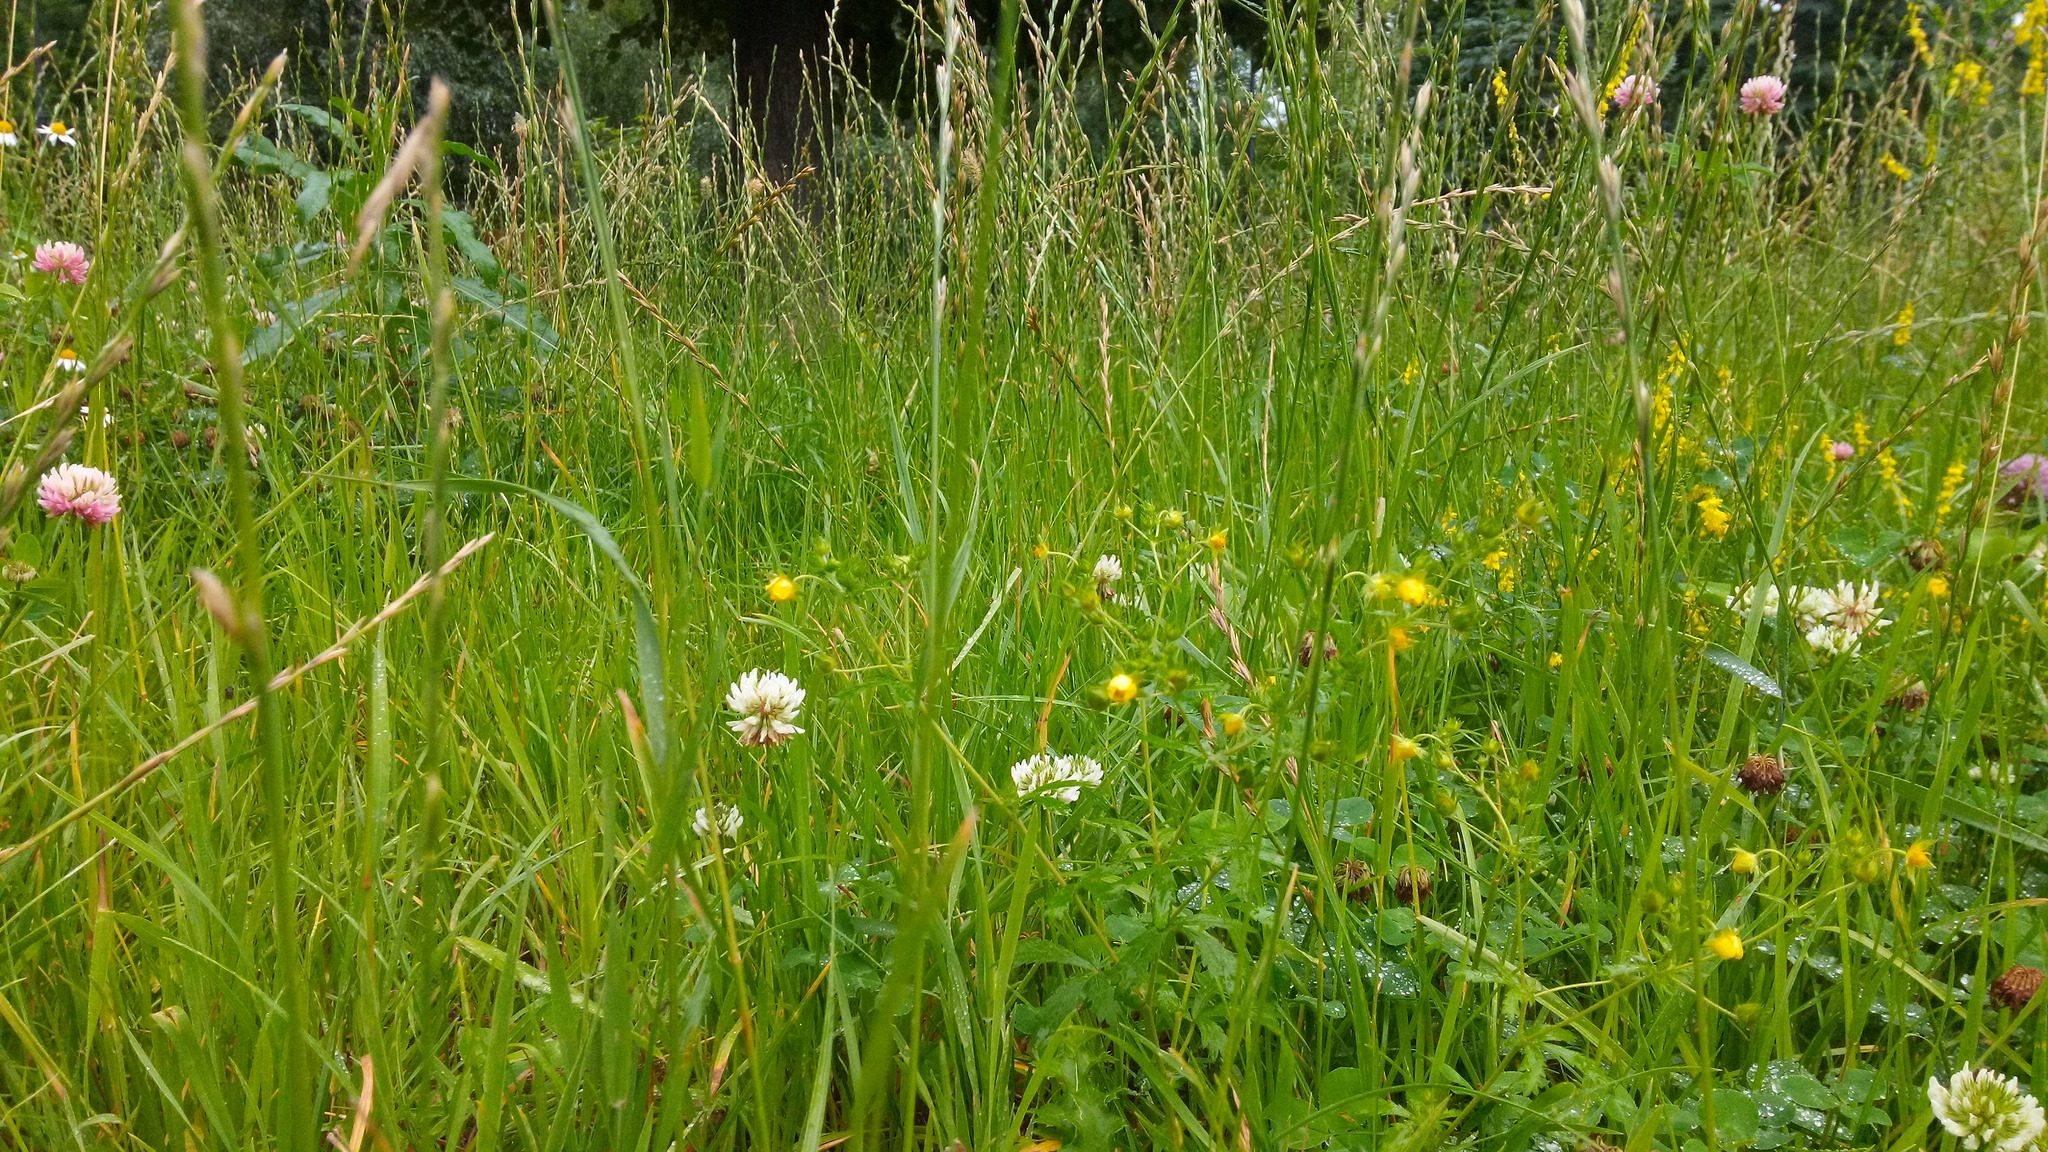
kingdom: Plantae
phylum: Tracheophyta
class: Magnoliopsida
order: Rosales
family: Rosaceae
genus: Potentilla
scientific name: Potentilla norvegica
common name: Ternate-leaved cinquefoil
